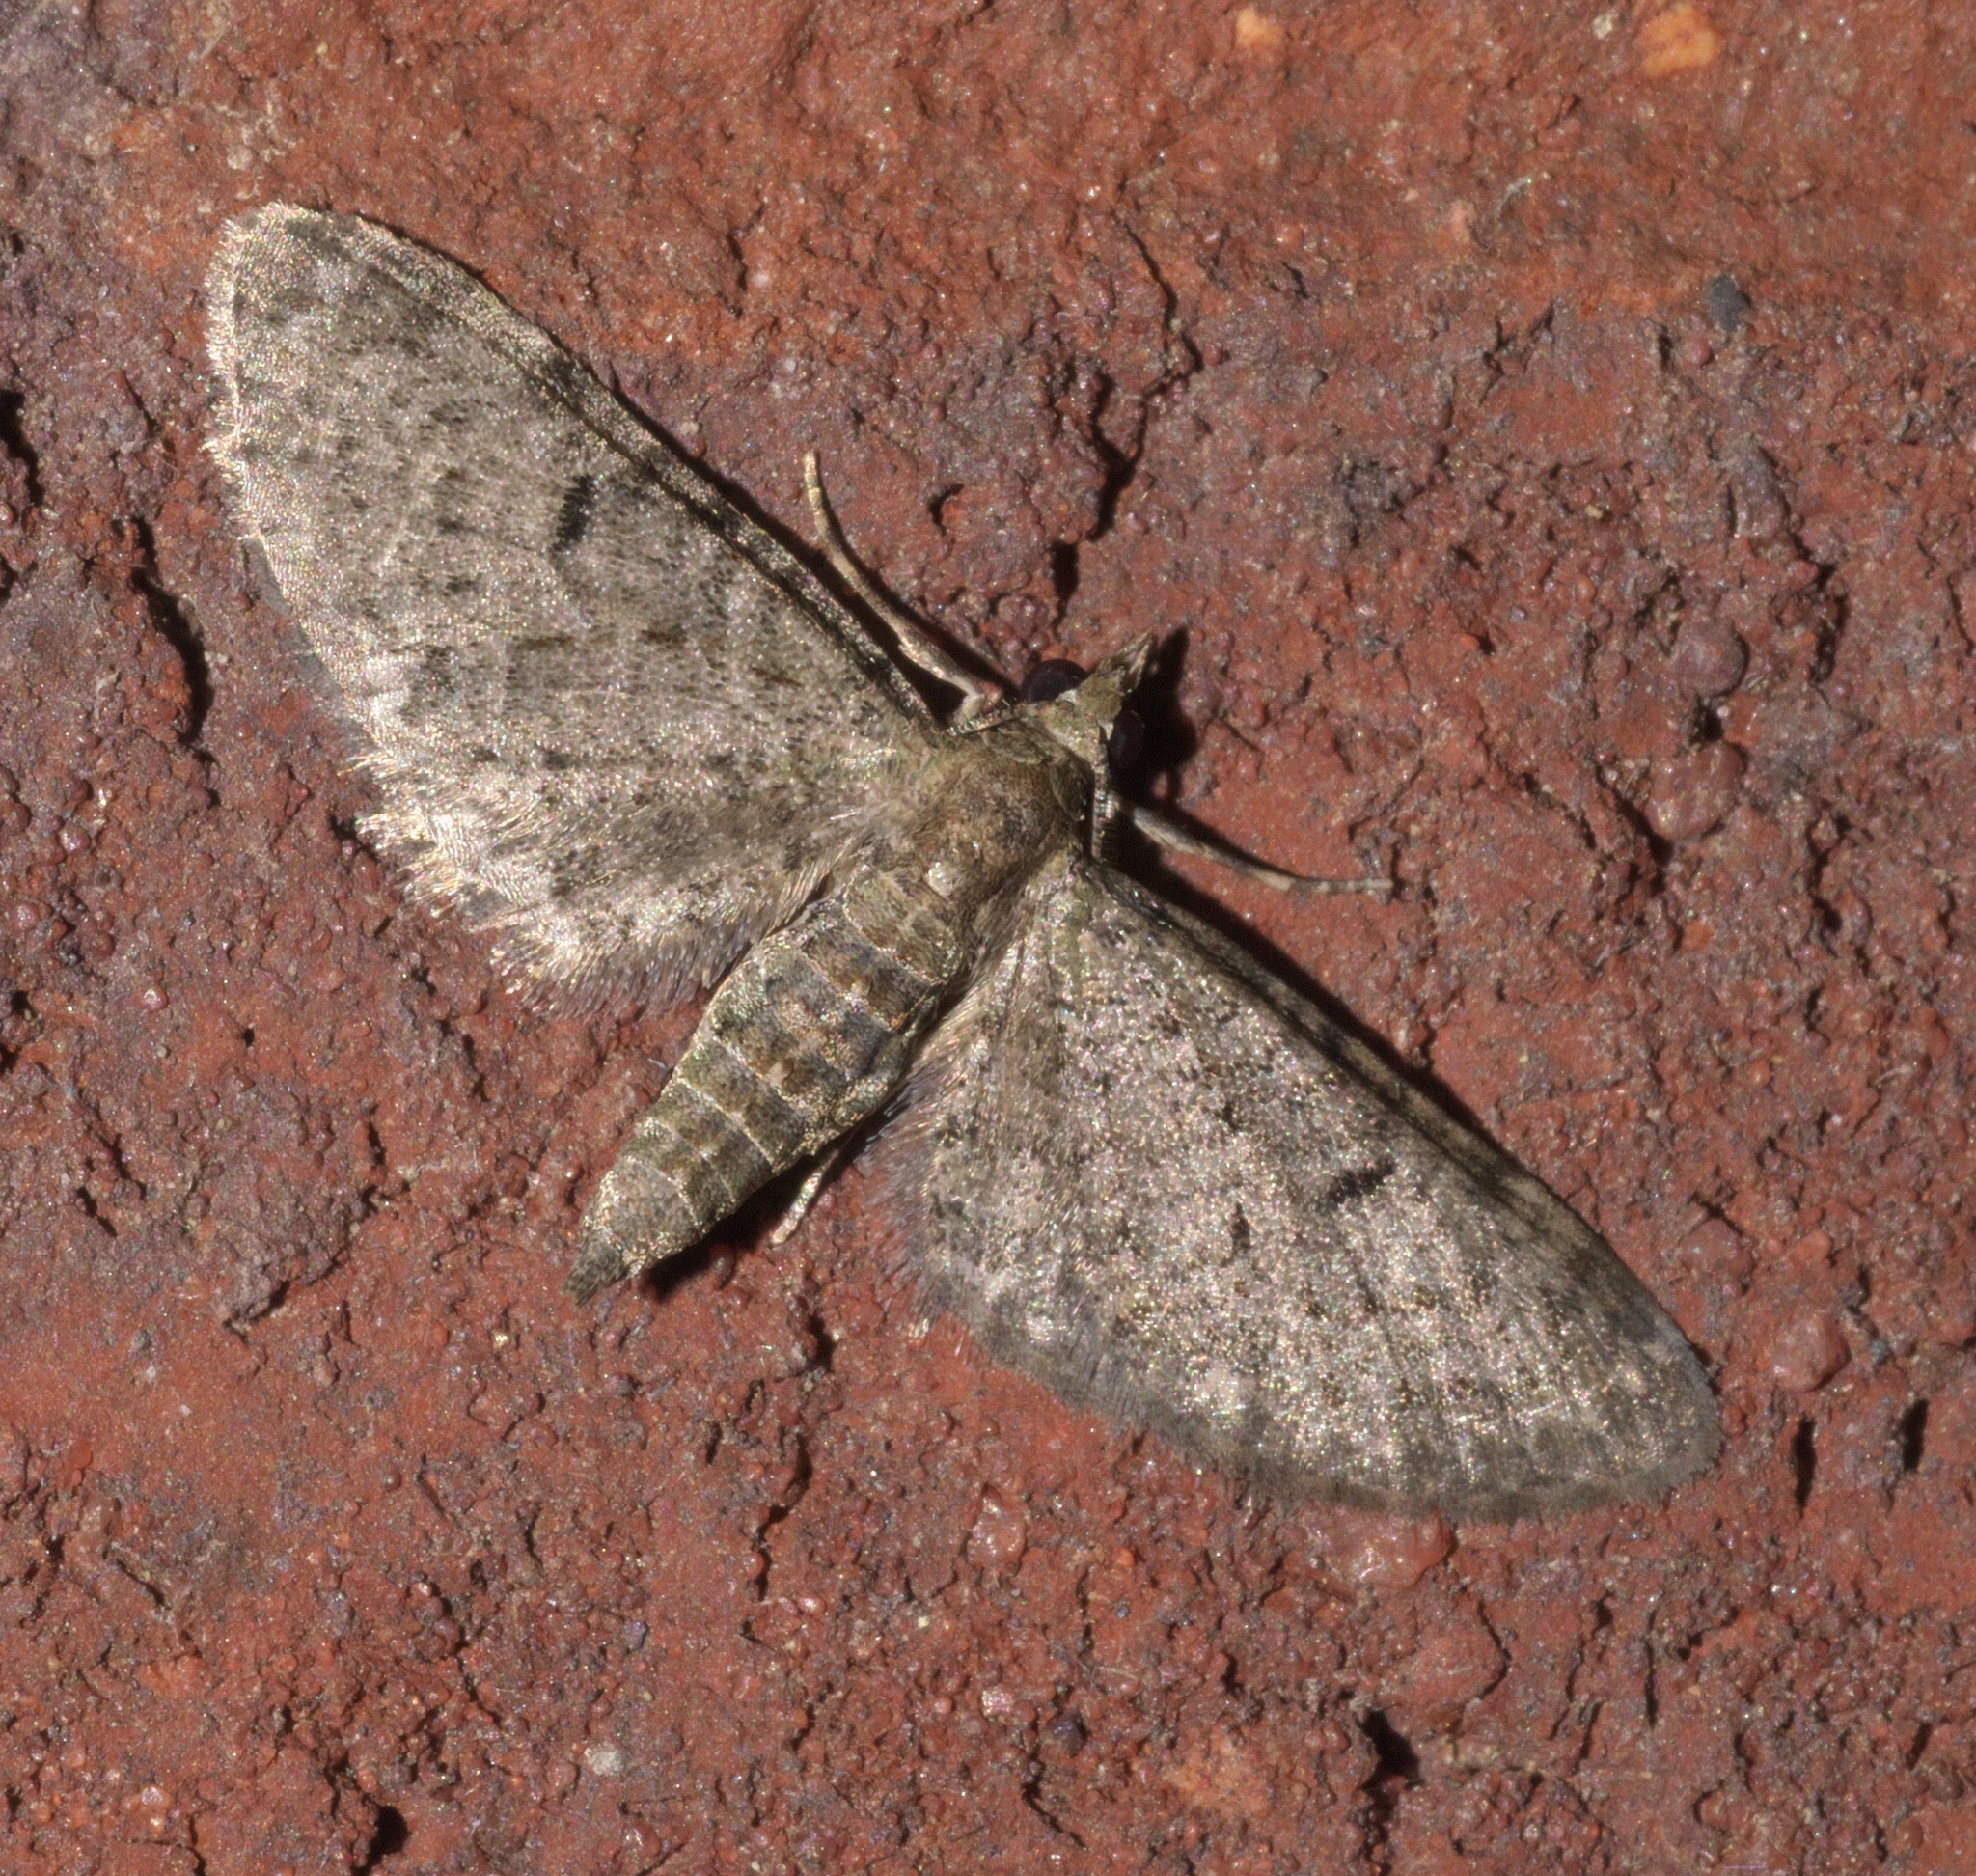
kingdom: Animalia
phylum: Arthropoda
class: Insecta
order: Lepidoptera
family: Geometridae
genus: Eupithecia
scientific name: Eupithecia miserulata
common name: Common eupithecia
